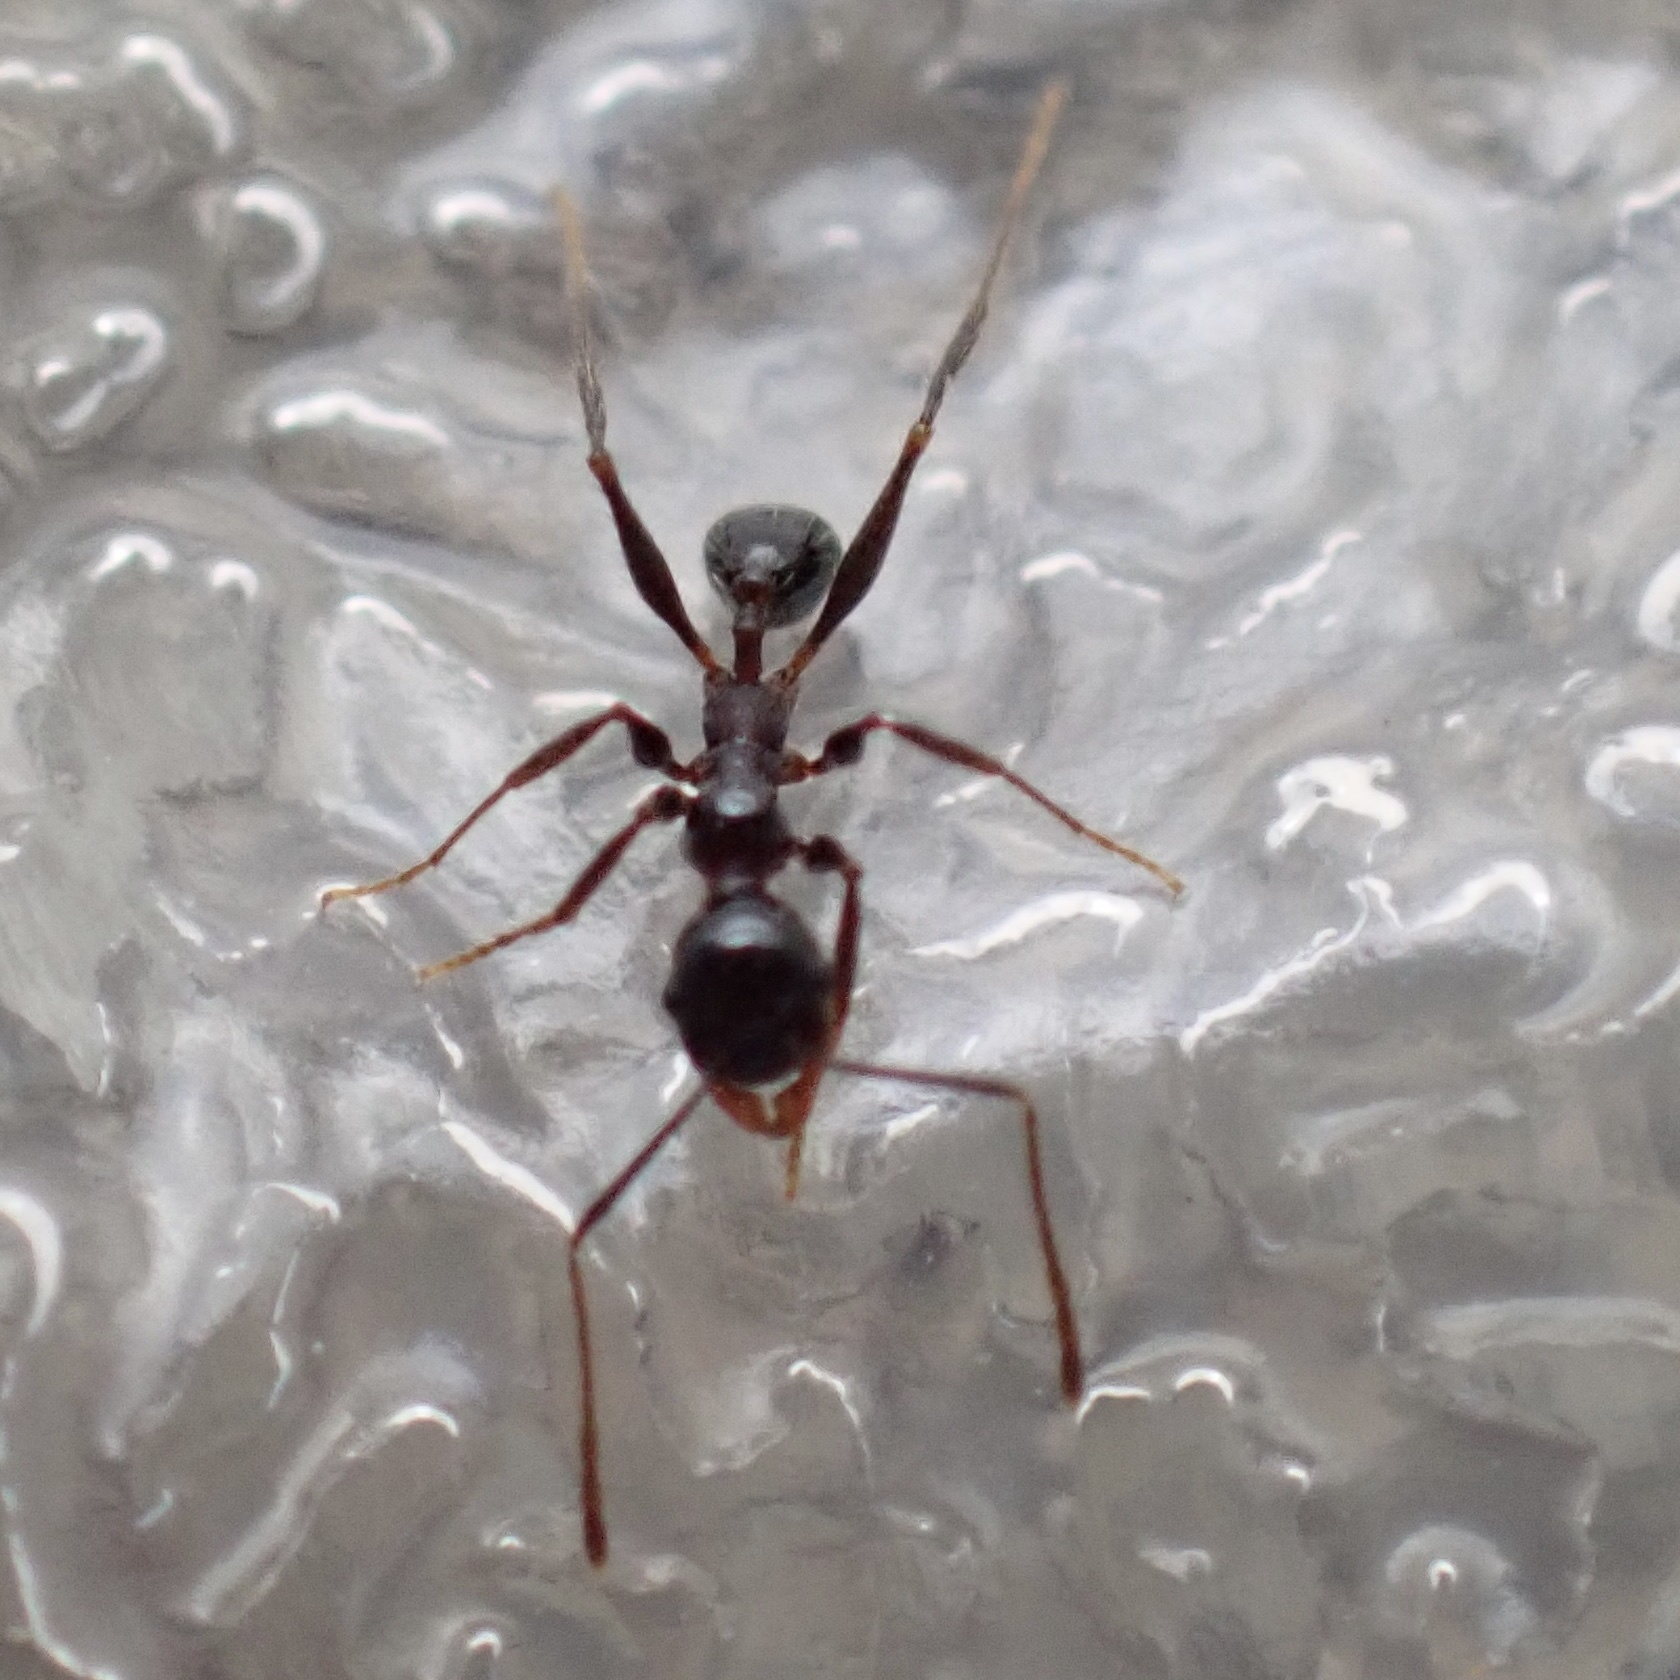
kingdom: Animalia
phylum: Arthropoda
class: Insecta
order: Hymenoptera
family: Formicidae
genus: Pheidole
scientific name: Pheidole obscurithorax
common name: Obscure big-headed ant
